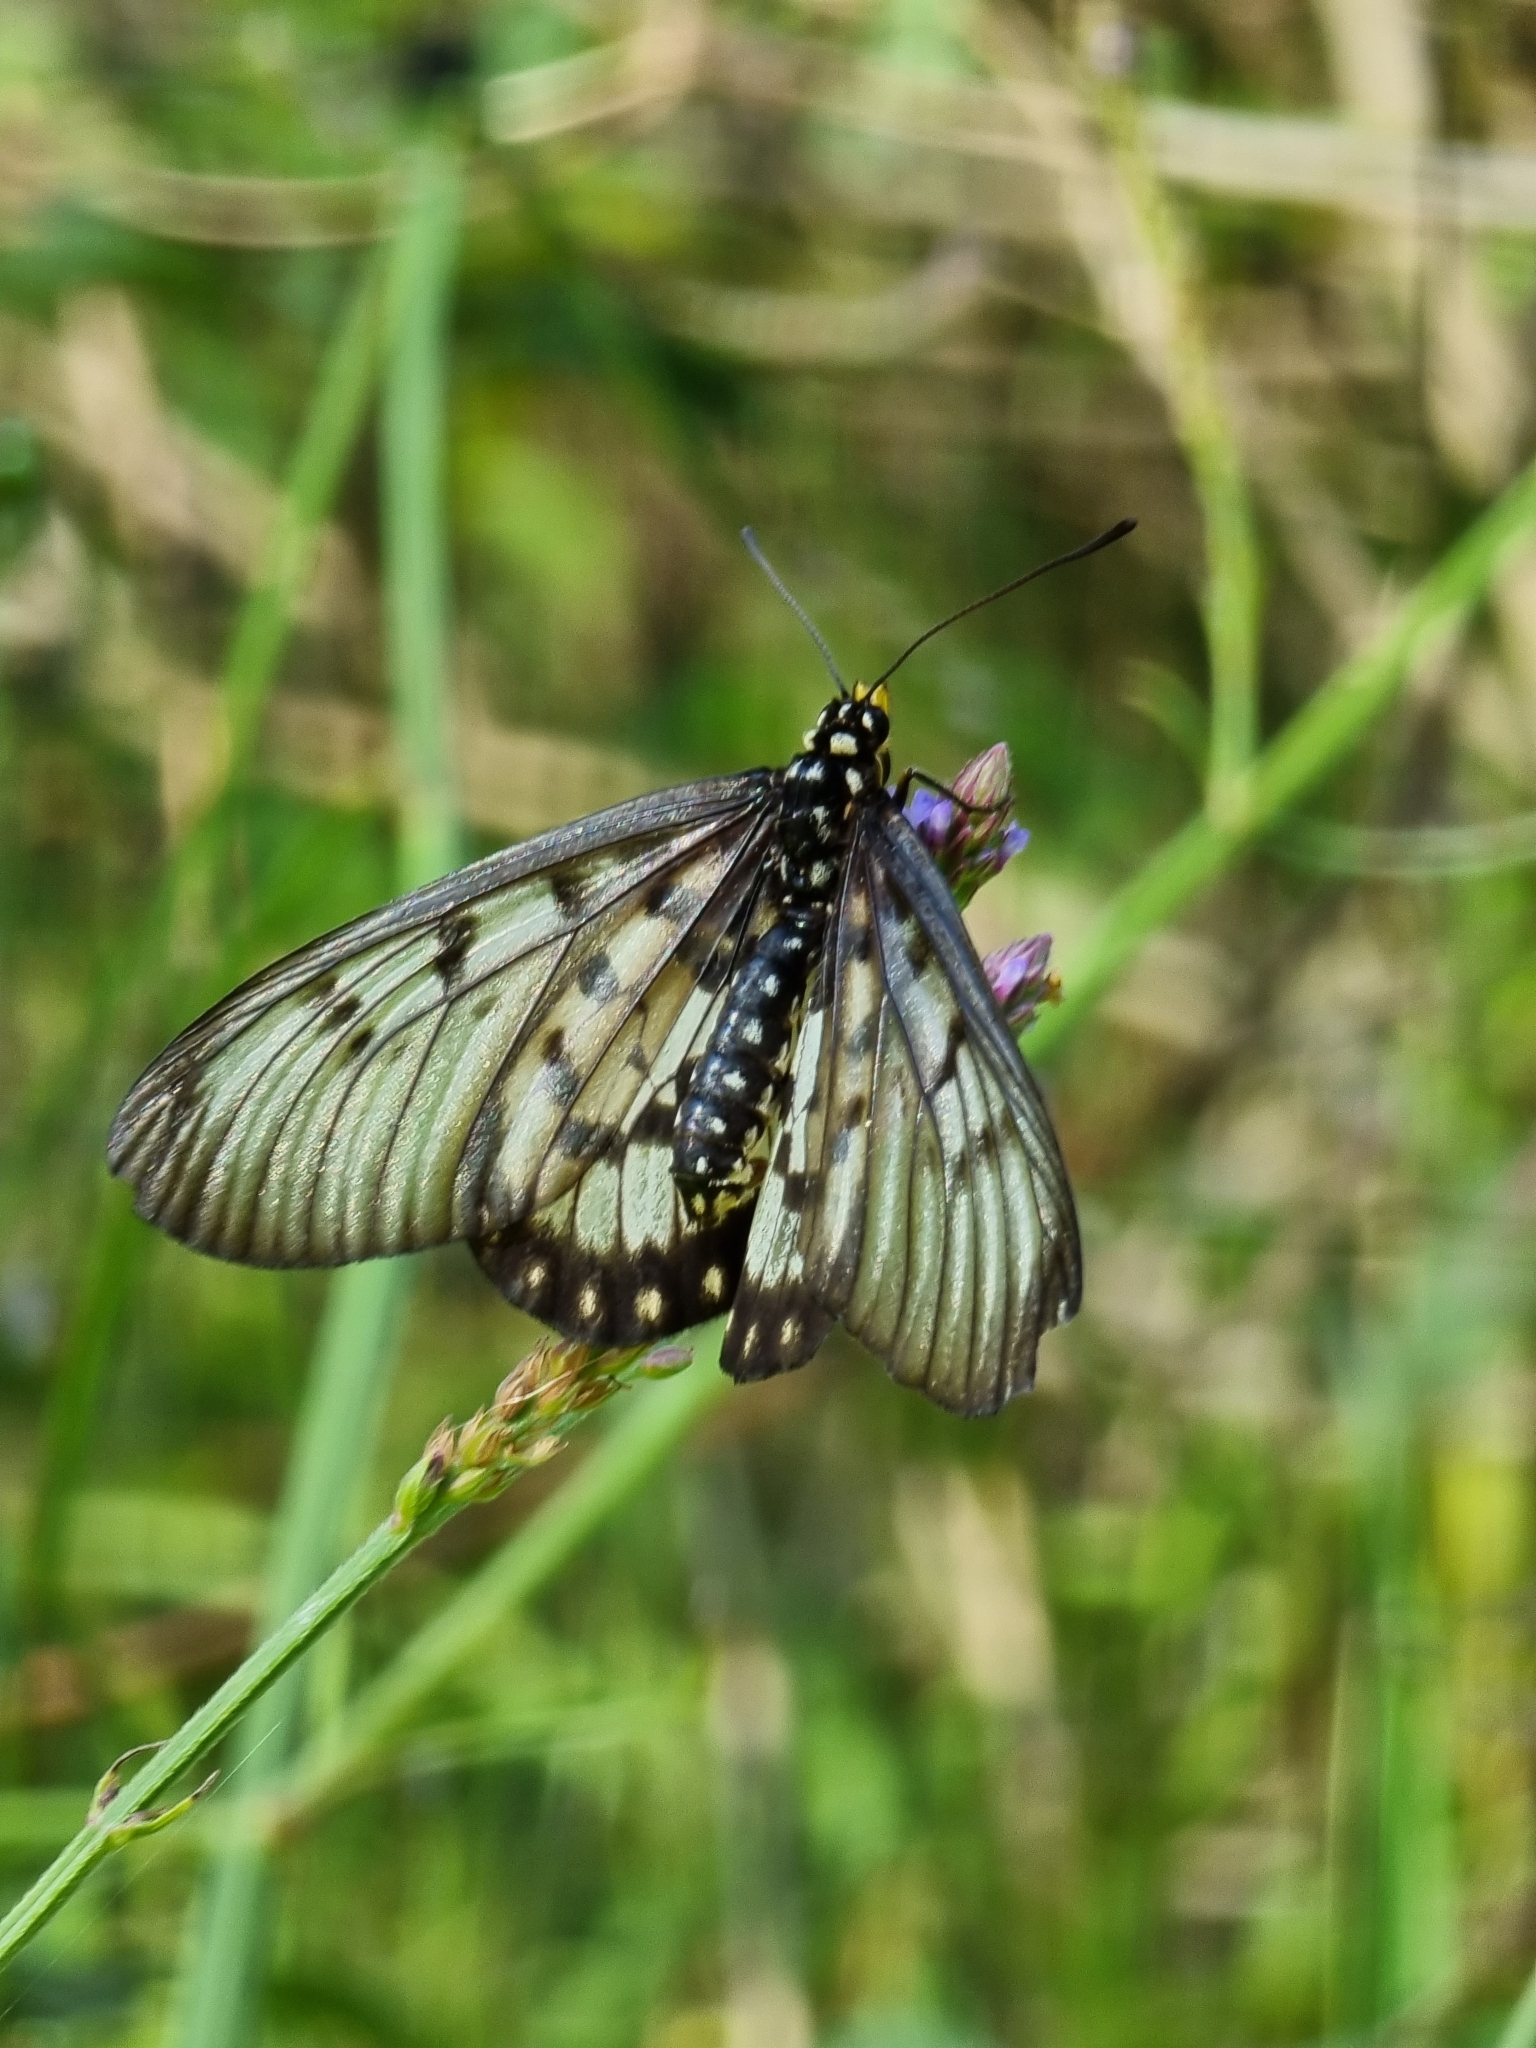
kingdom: Animalia
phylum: Arthropoda
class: Insecta
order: Lepidoptera
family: Nymphalidae
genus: Acraea
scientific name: Acraea andromacha
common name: Glasswing
